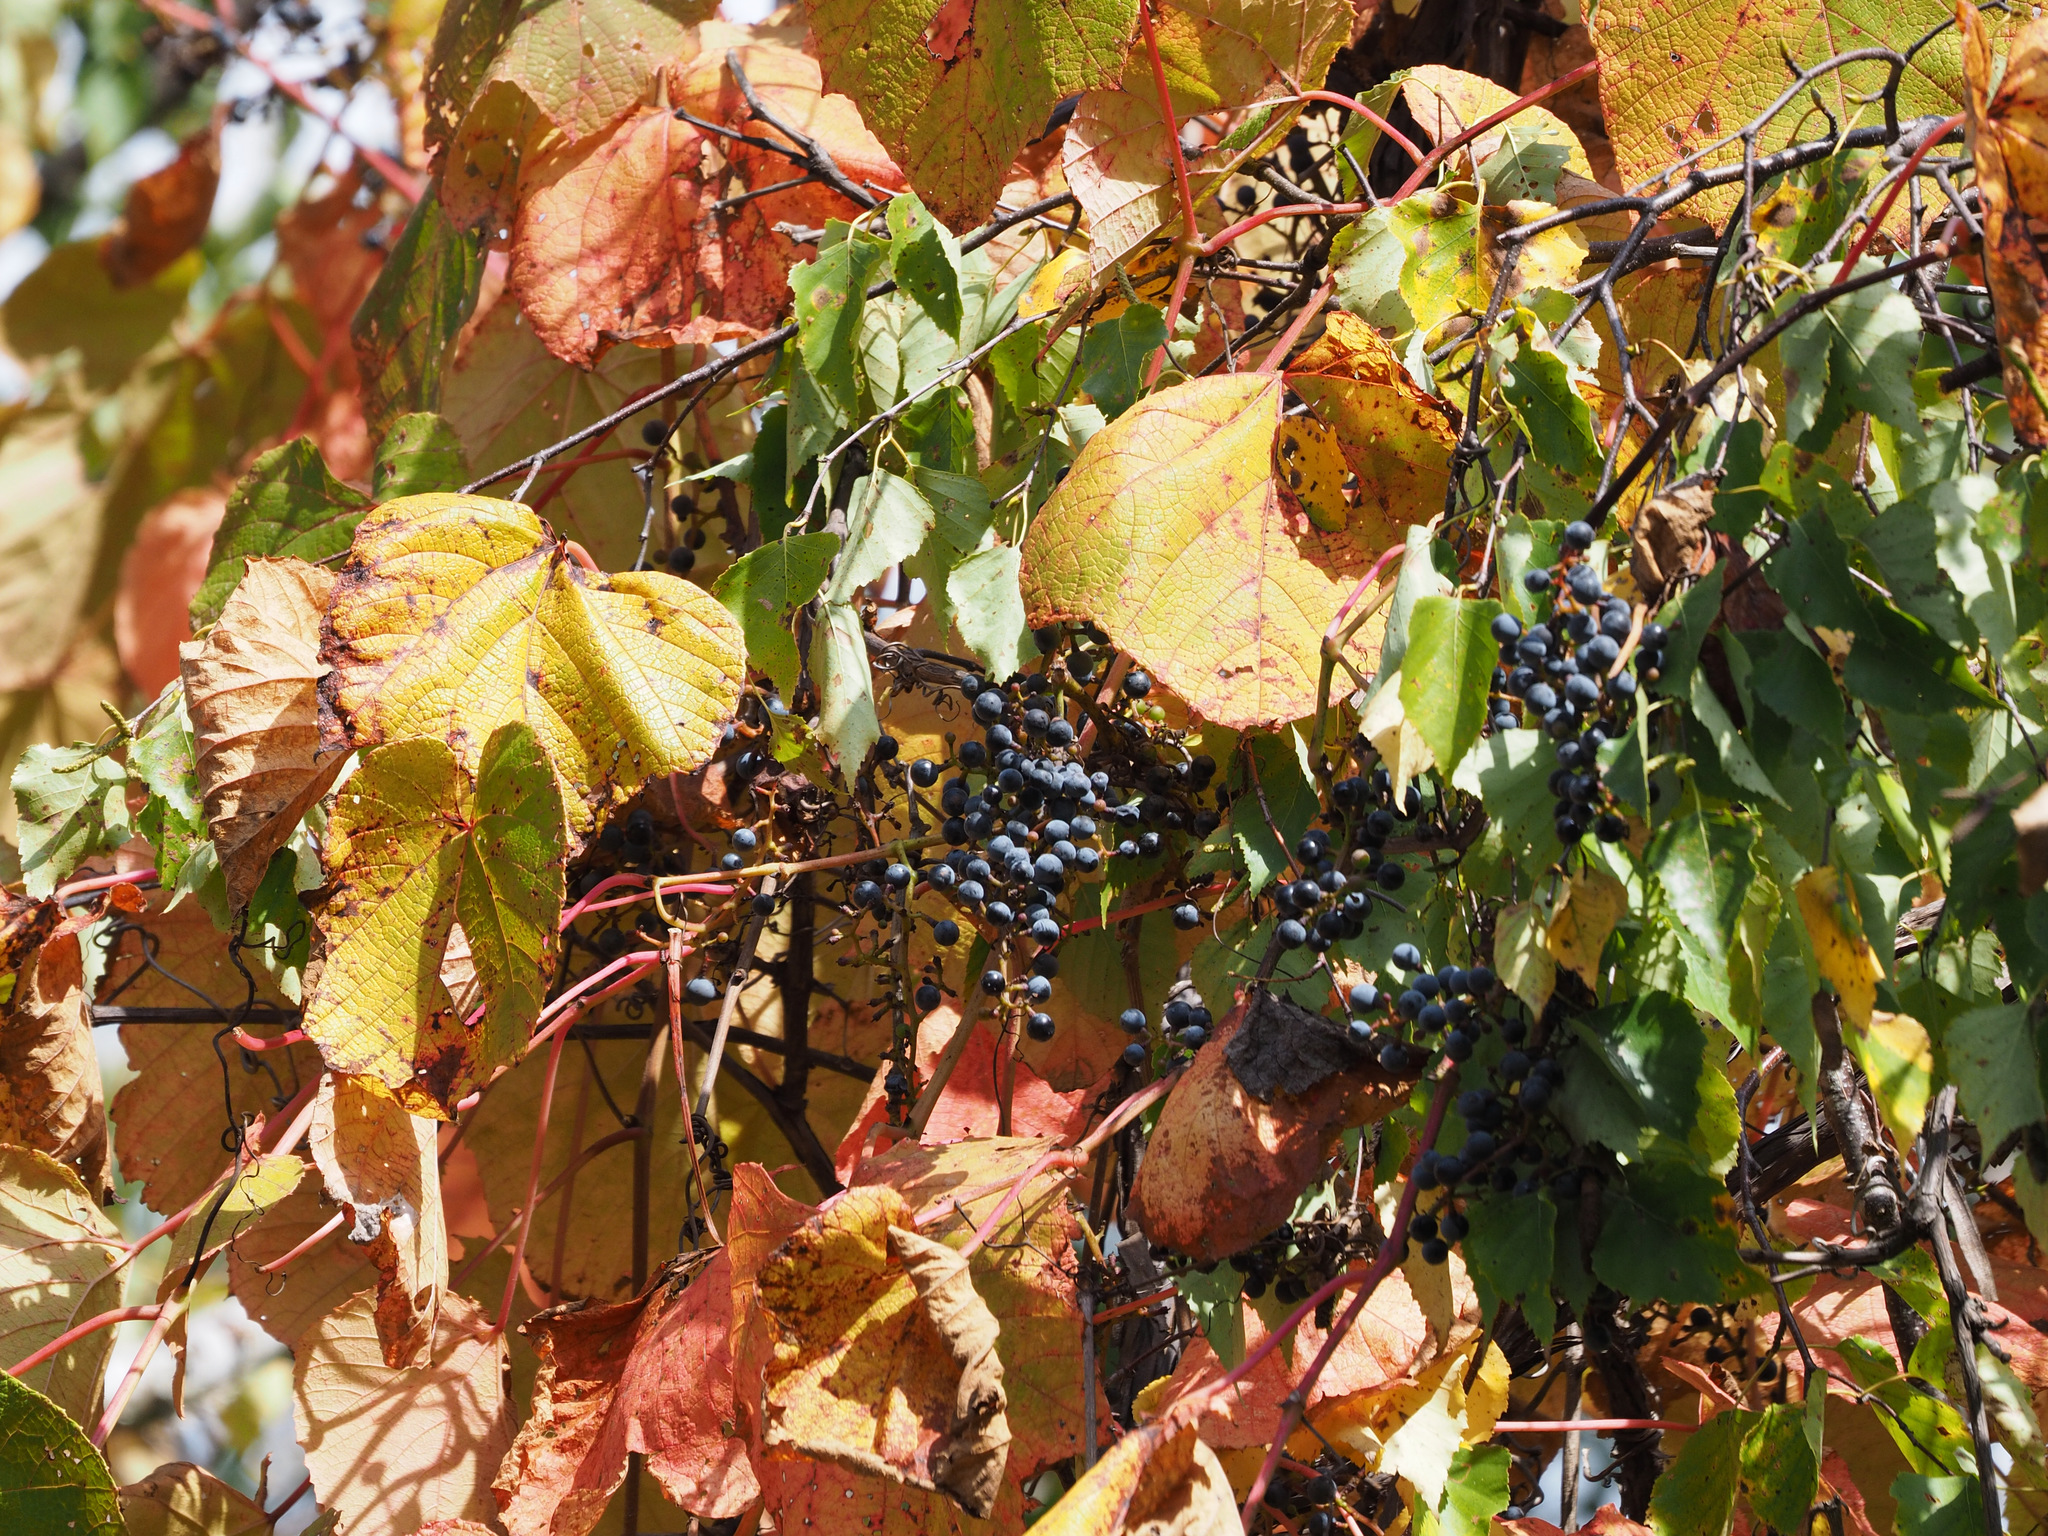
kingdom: Plantae
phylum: Tracheophyta
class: Magnoliopsida
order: Vitales
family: Vitaceae
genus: Vitis
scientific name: Vitis coignetiae
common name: Crimson gloryvine
